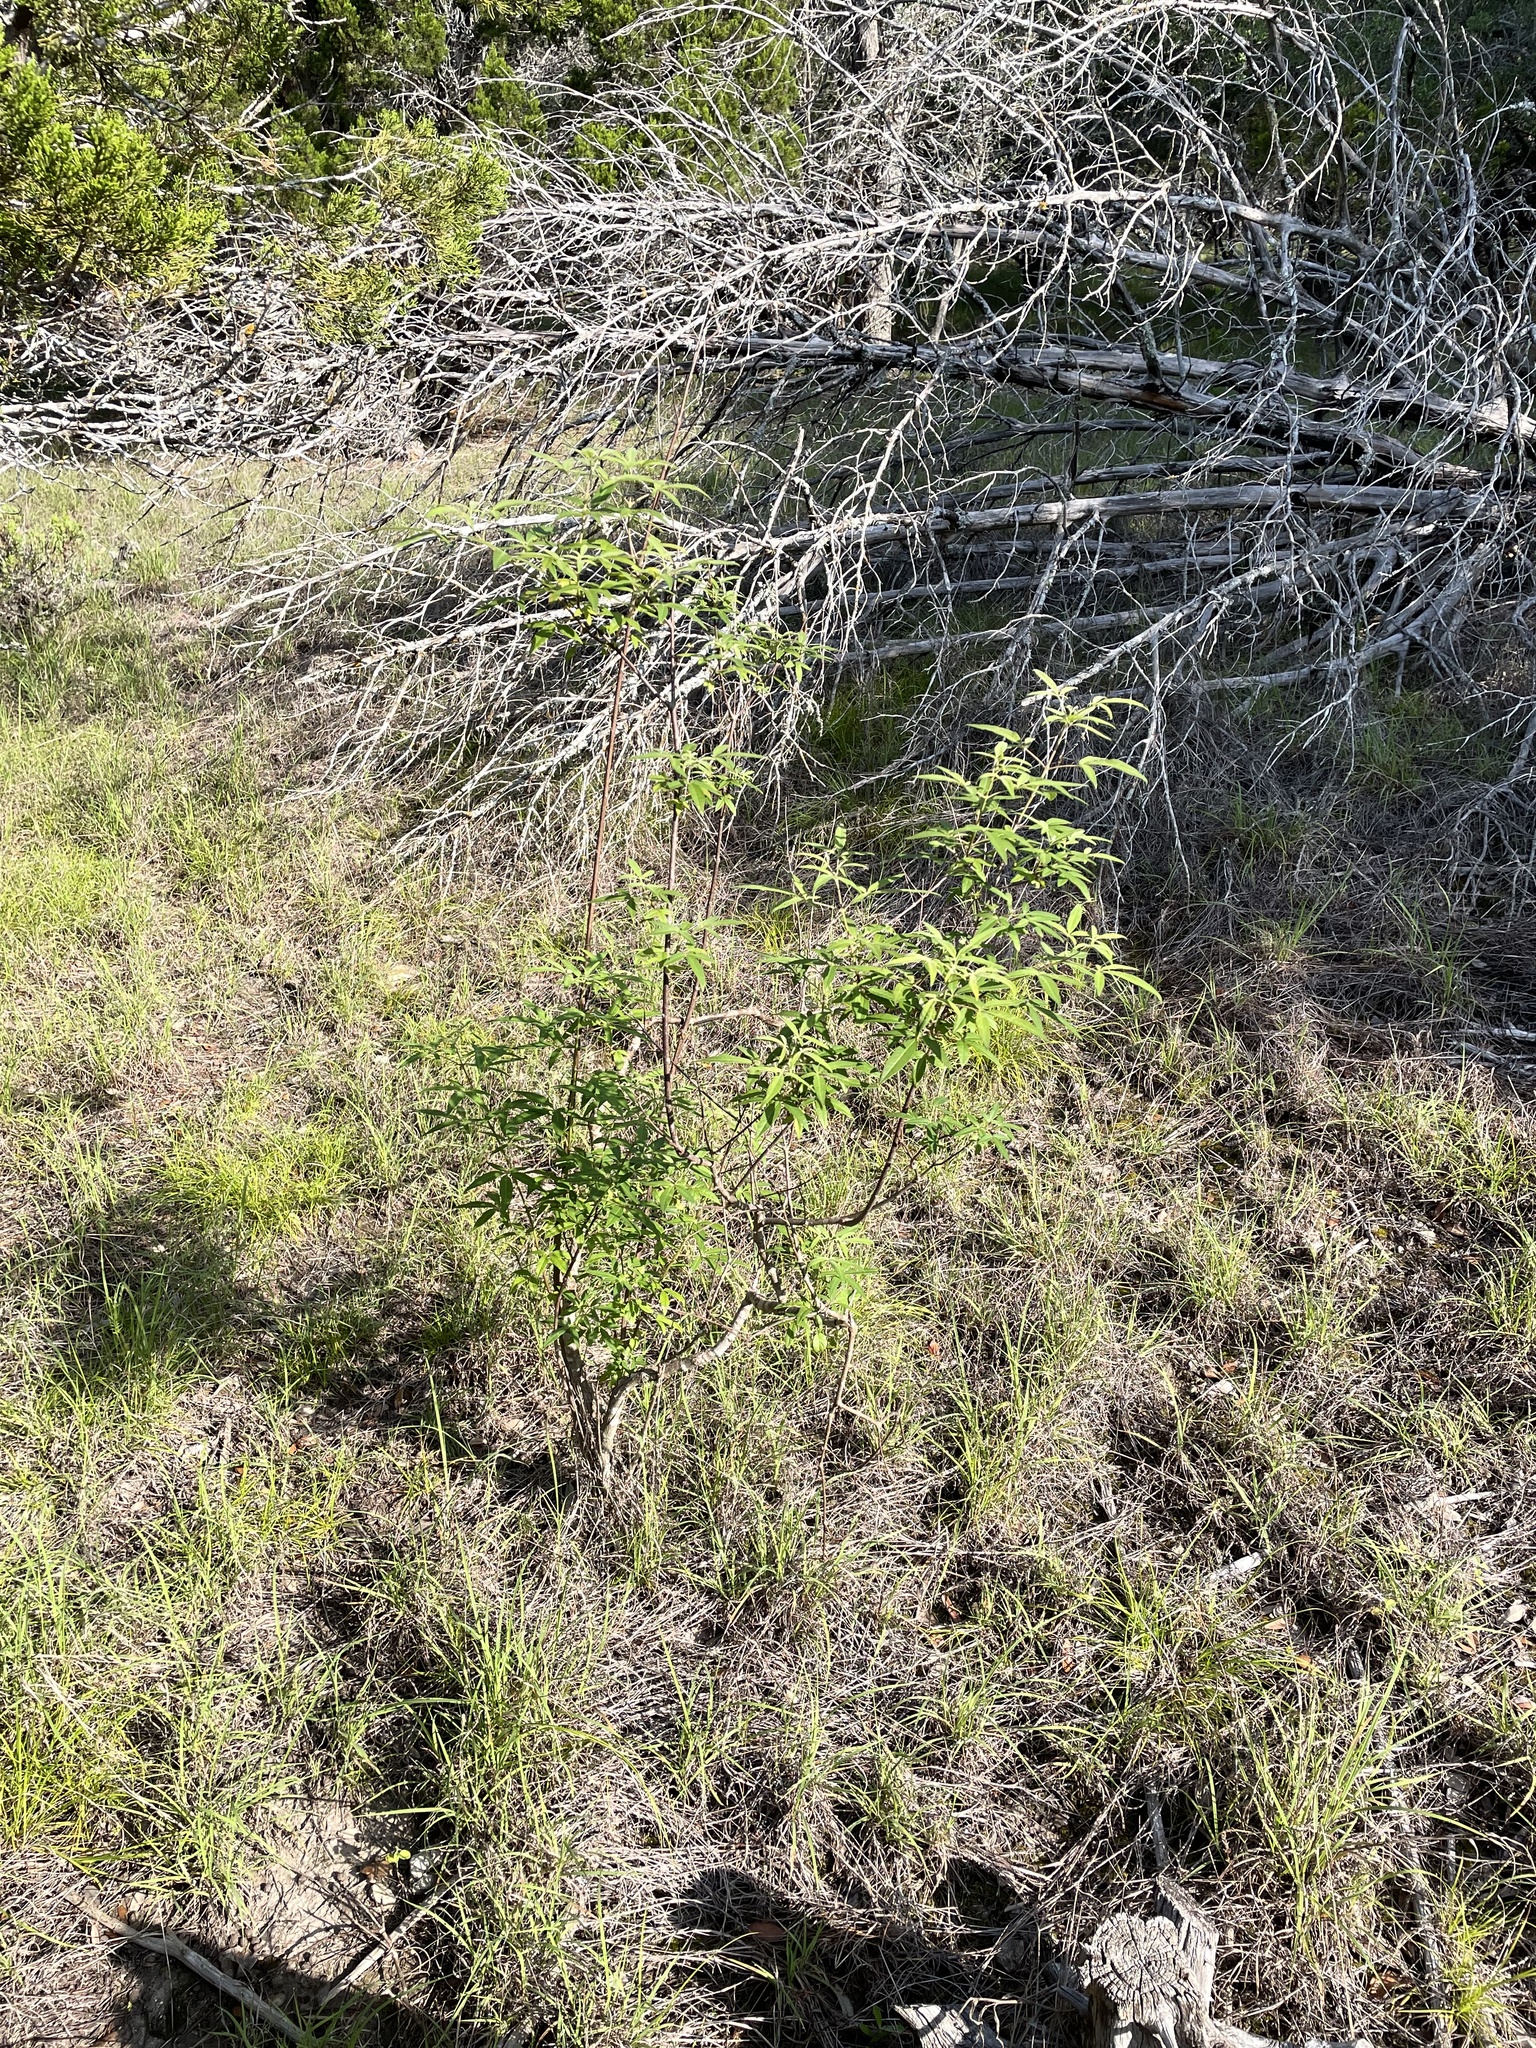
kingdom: Plantae
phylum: Tracheophyta
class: Magnoliopsida
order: Lamiales
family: Lamiaceae
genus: Vitex
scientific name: Vitex agnus-castus
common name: Chasteberry
